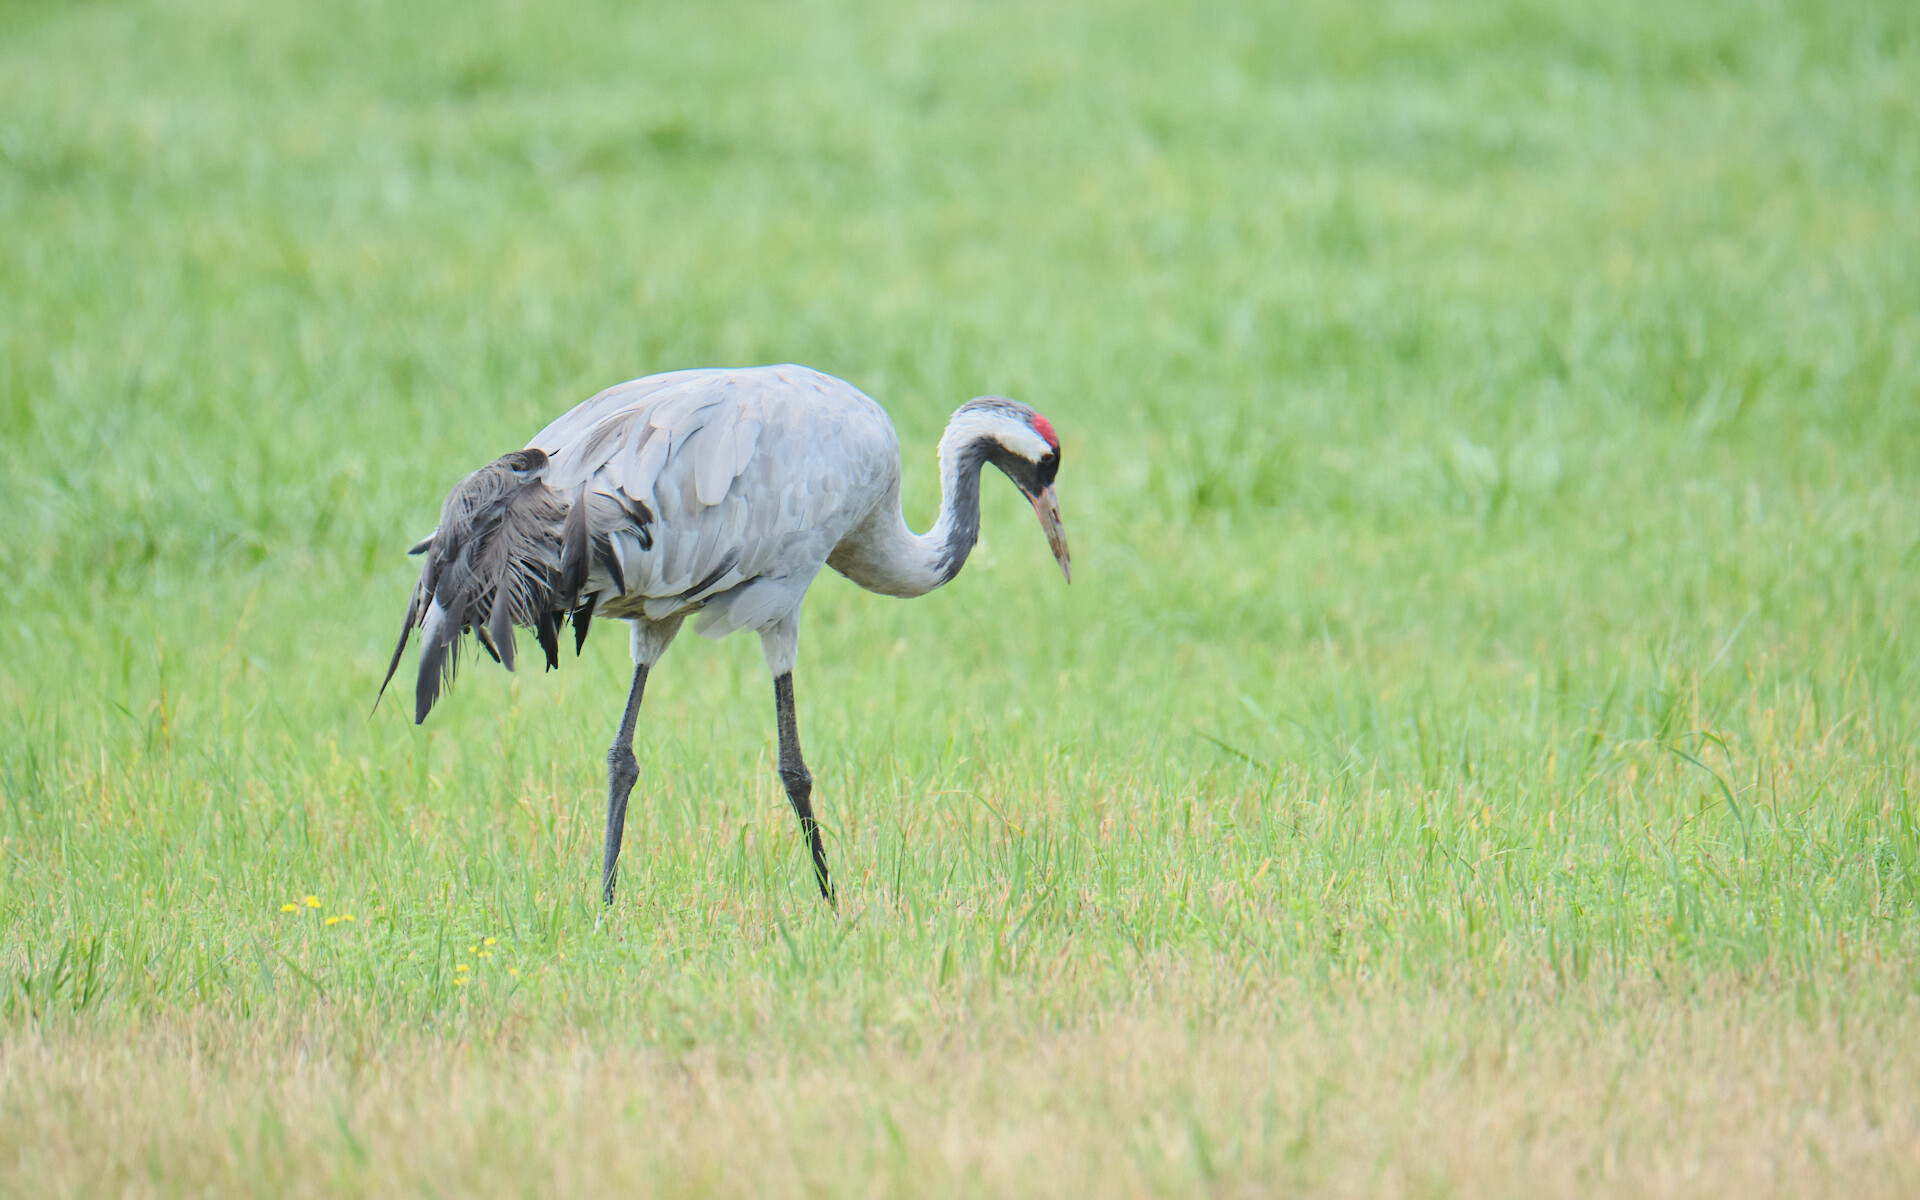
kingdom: Animalia
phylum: Chordata
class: Aves
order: Gruiformes
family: Gruidae
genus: Grus
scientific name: Grus grus
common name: Common crane
